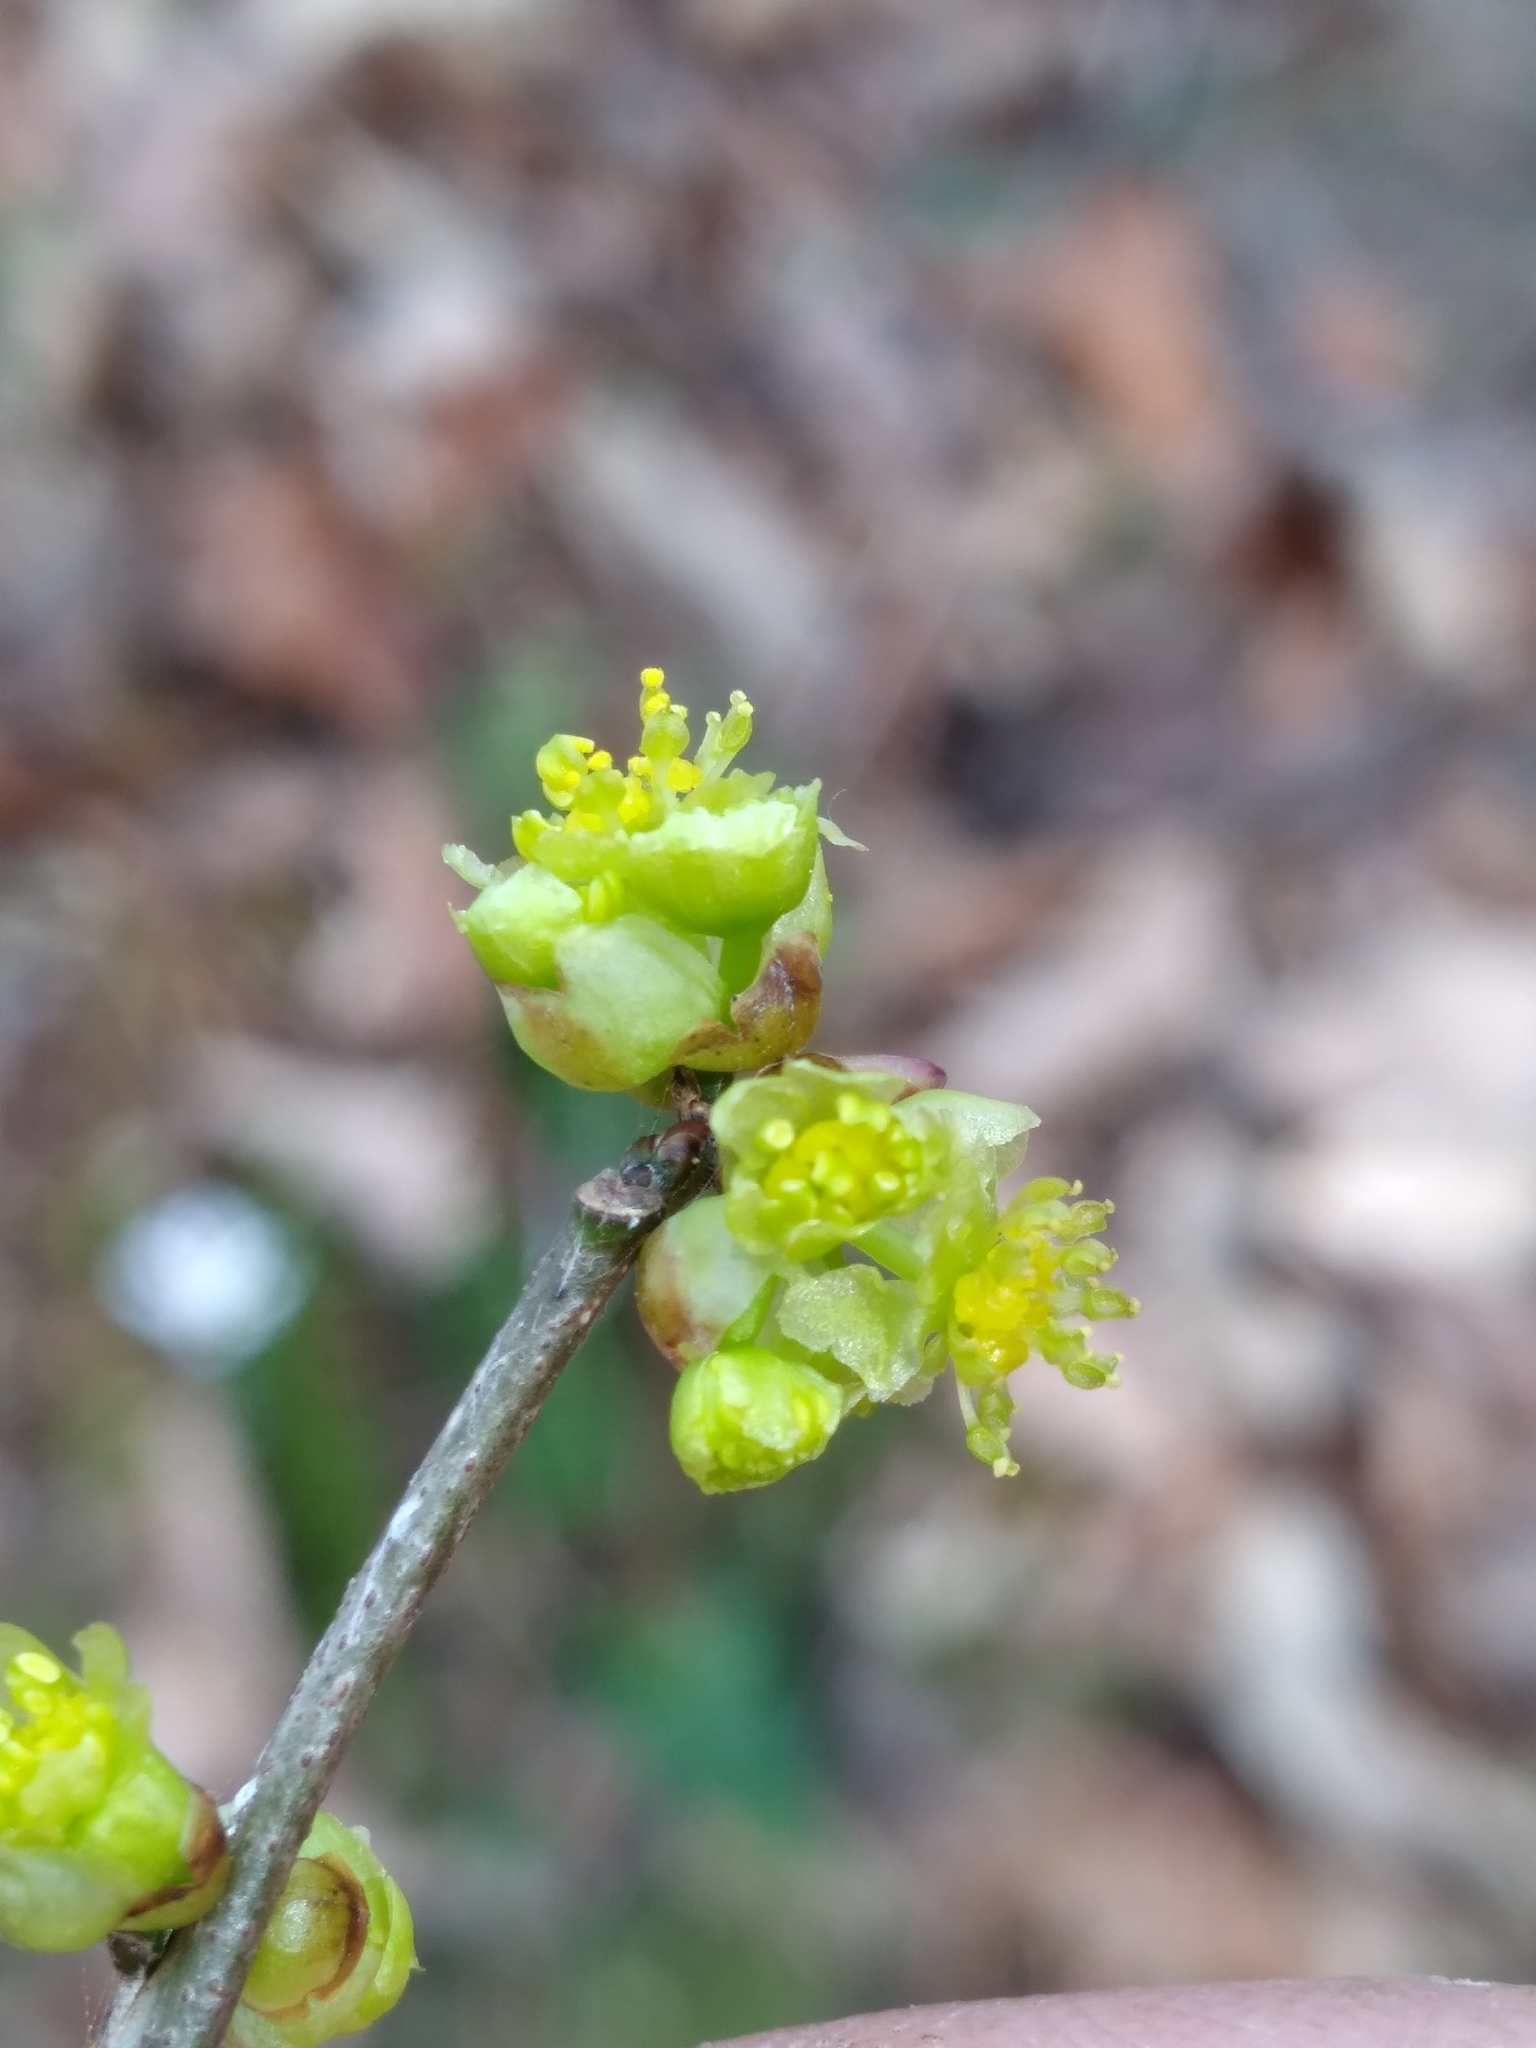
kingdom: Plantae
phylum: Tracheophyta
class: Magnoliopsida
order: Laurales
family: Lauraceae
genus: Lindera
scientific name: Lindera benzoin
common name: Spicebush
